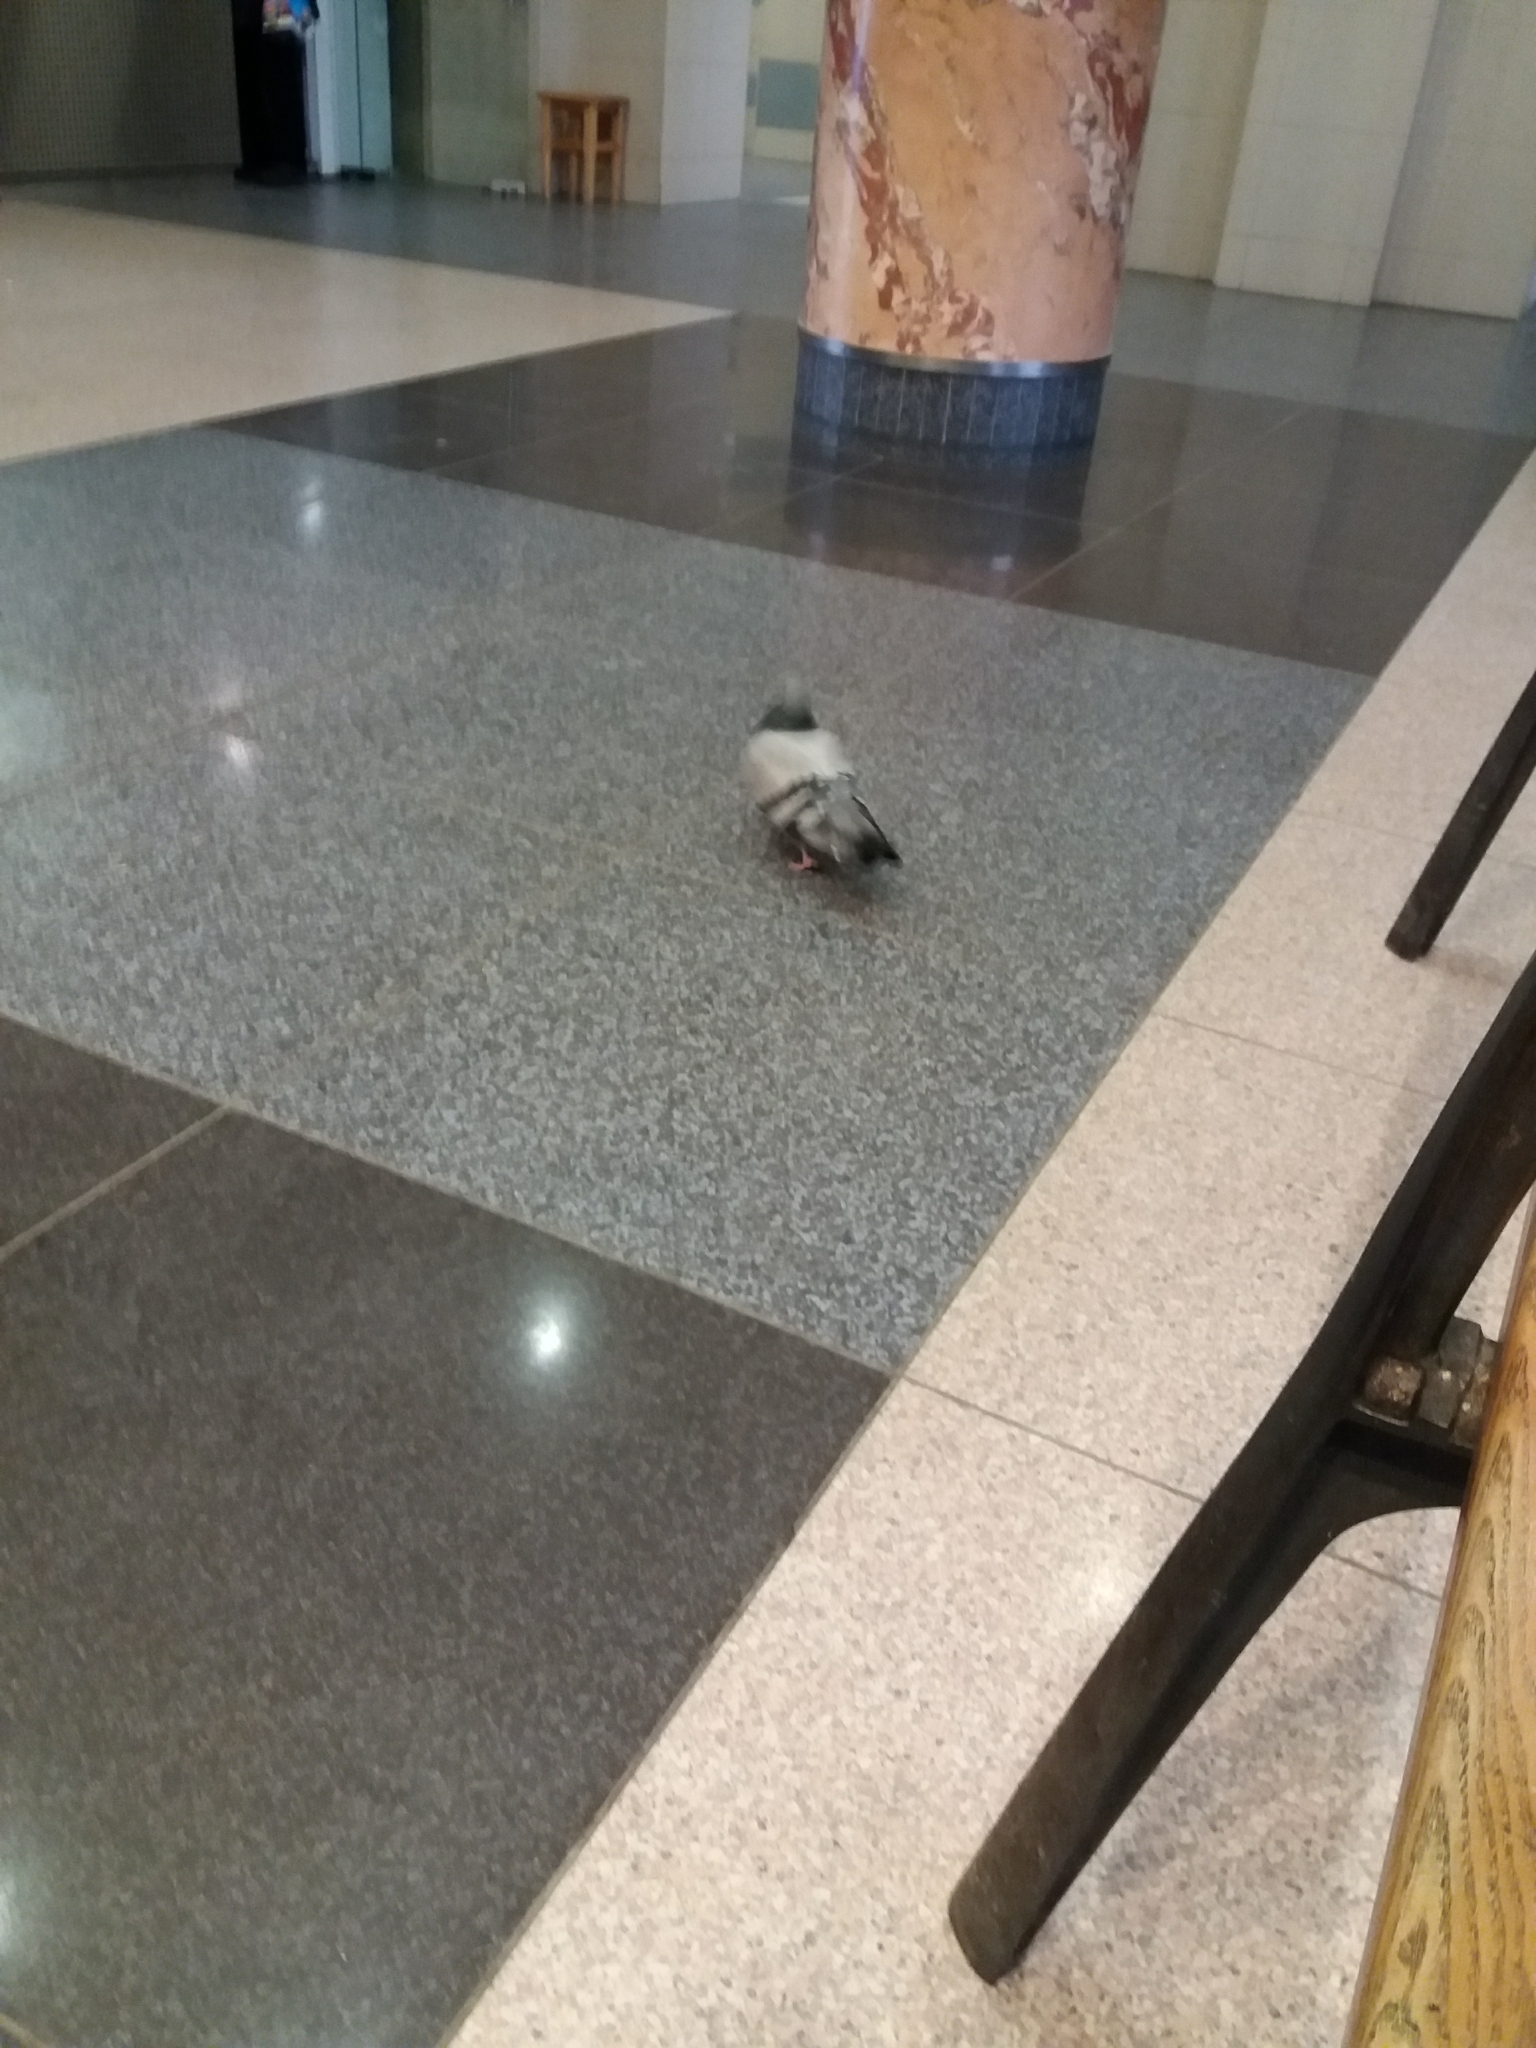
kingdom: Animalia
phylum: Chordata
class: Aves
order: Columbiformes
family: Columbidae
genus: Columba
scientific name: Columba livia
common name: Rock pigeon
